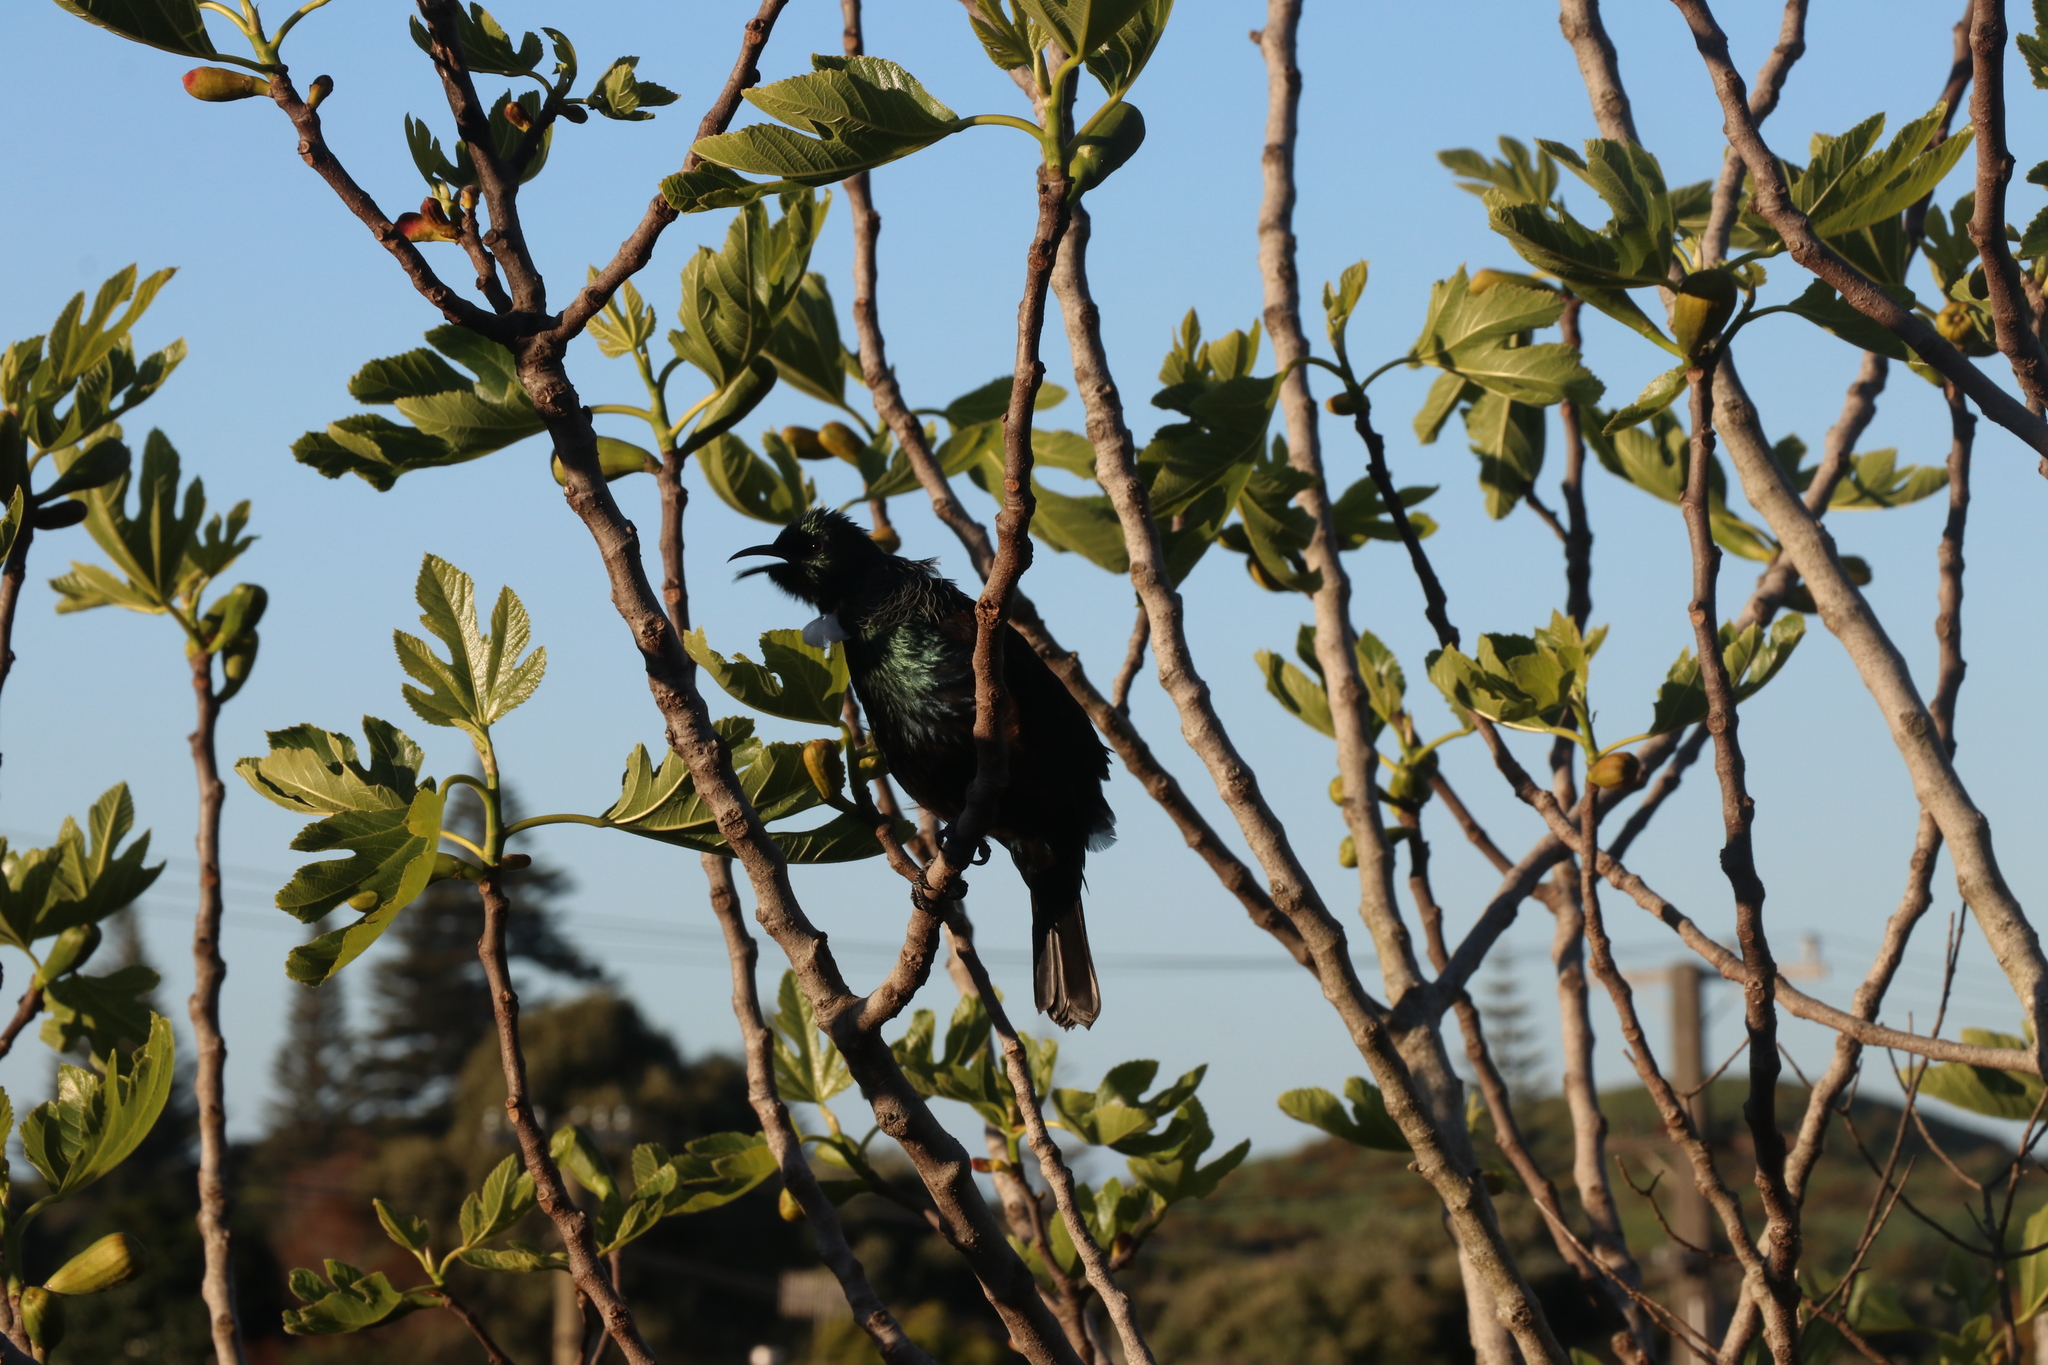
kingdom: Animalia
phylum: Chordata
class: Aves
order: Passeriformes
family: Meliphagidae
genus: Prosthemadera
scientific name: Prosthemadera novaeseelandiae
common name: Tui
